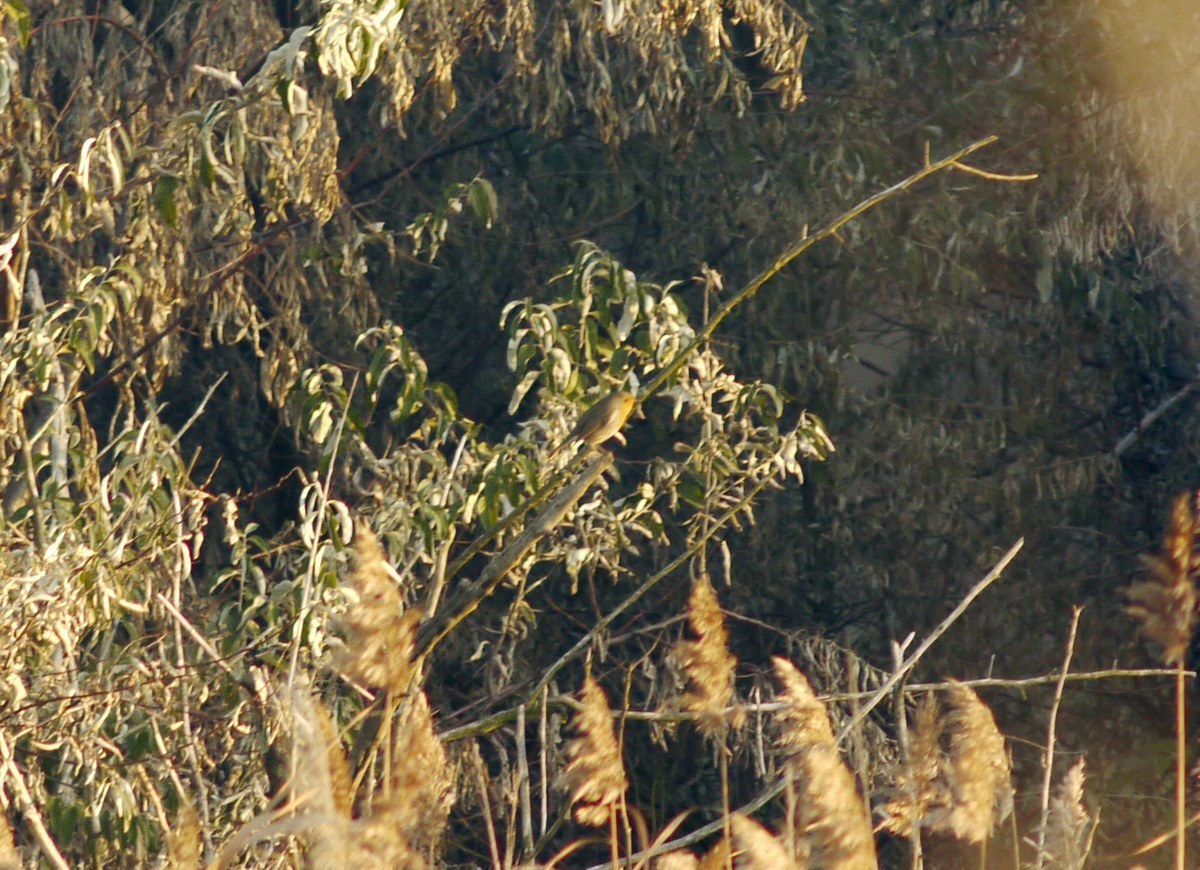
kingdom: Animalia
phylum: Chordata
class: Aves
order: Passeriformes
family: Muscicapidae
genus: Erithacus
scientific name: Erithacus rubecula
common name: European robin
